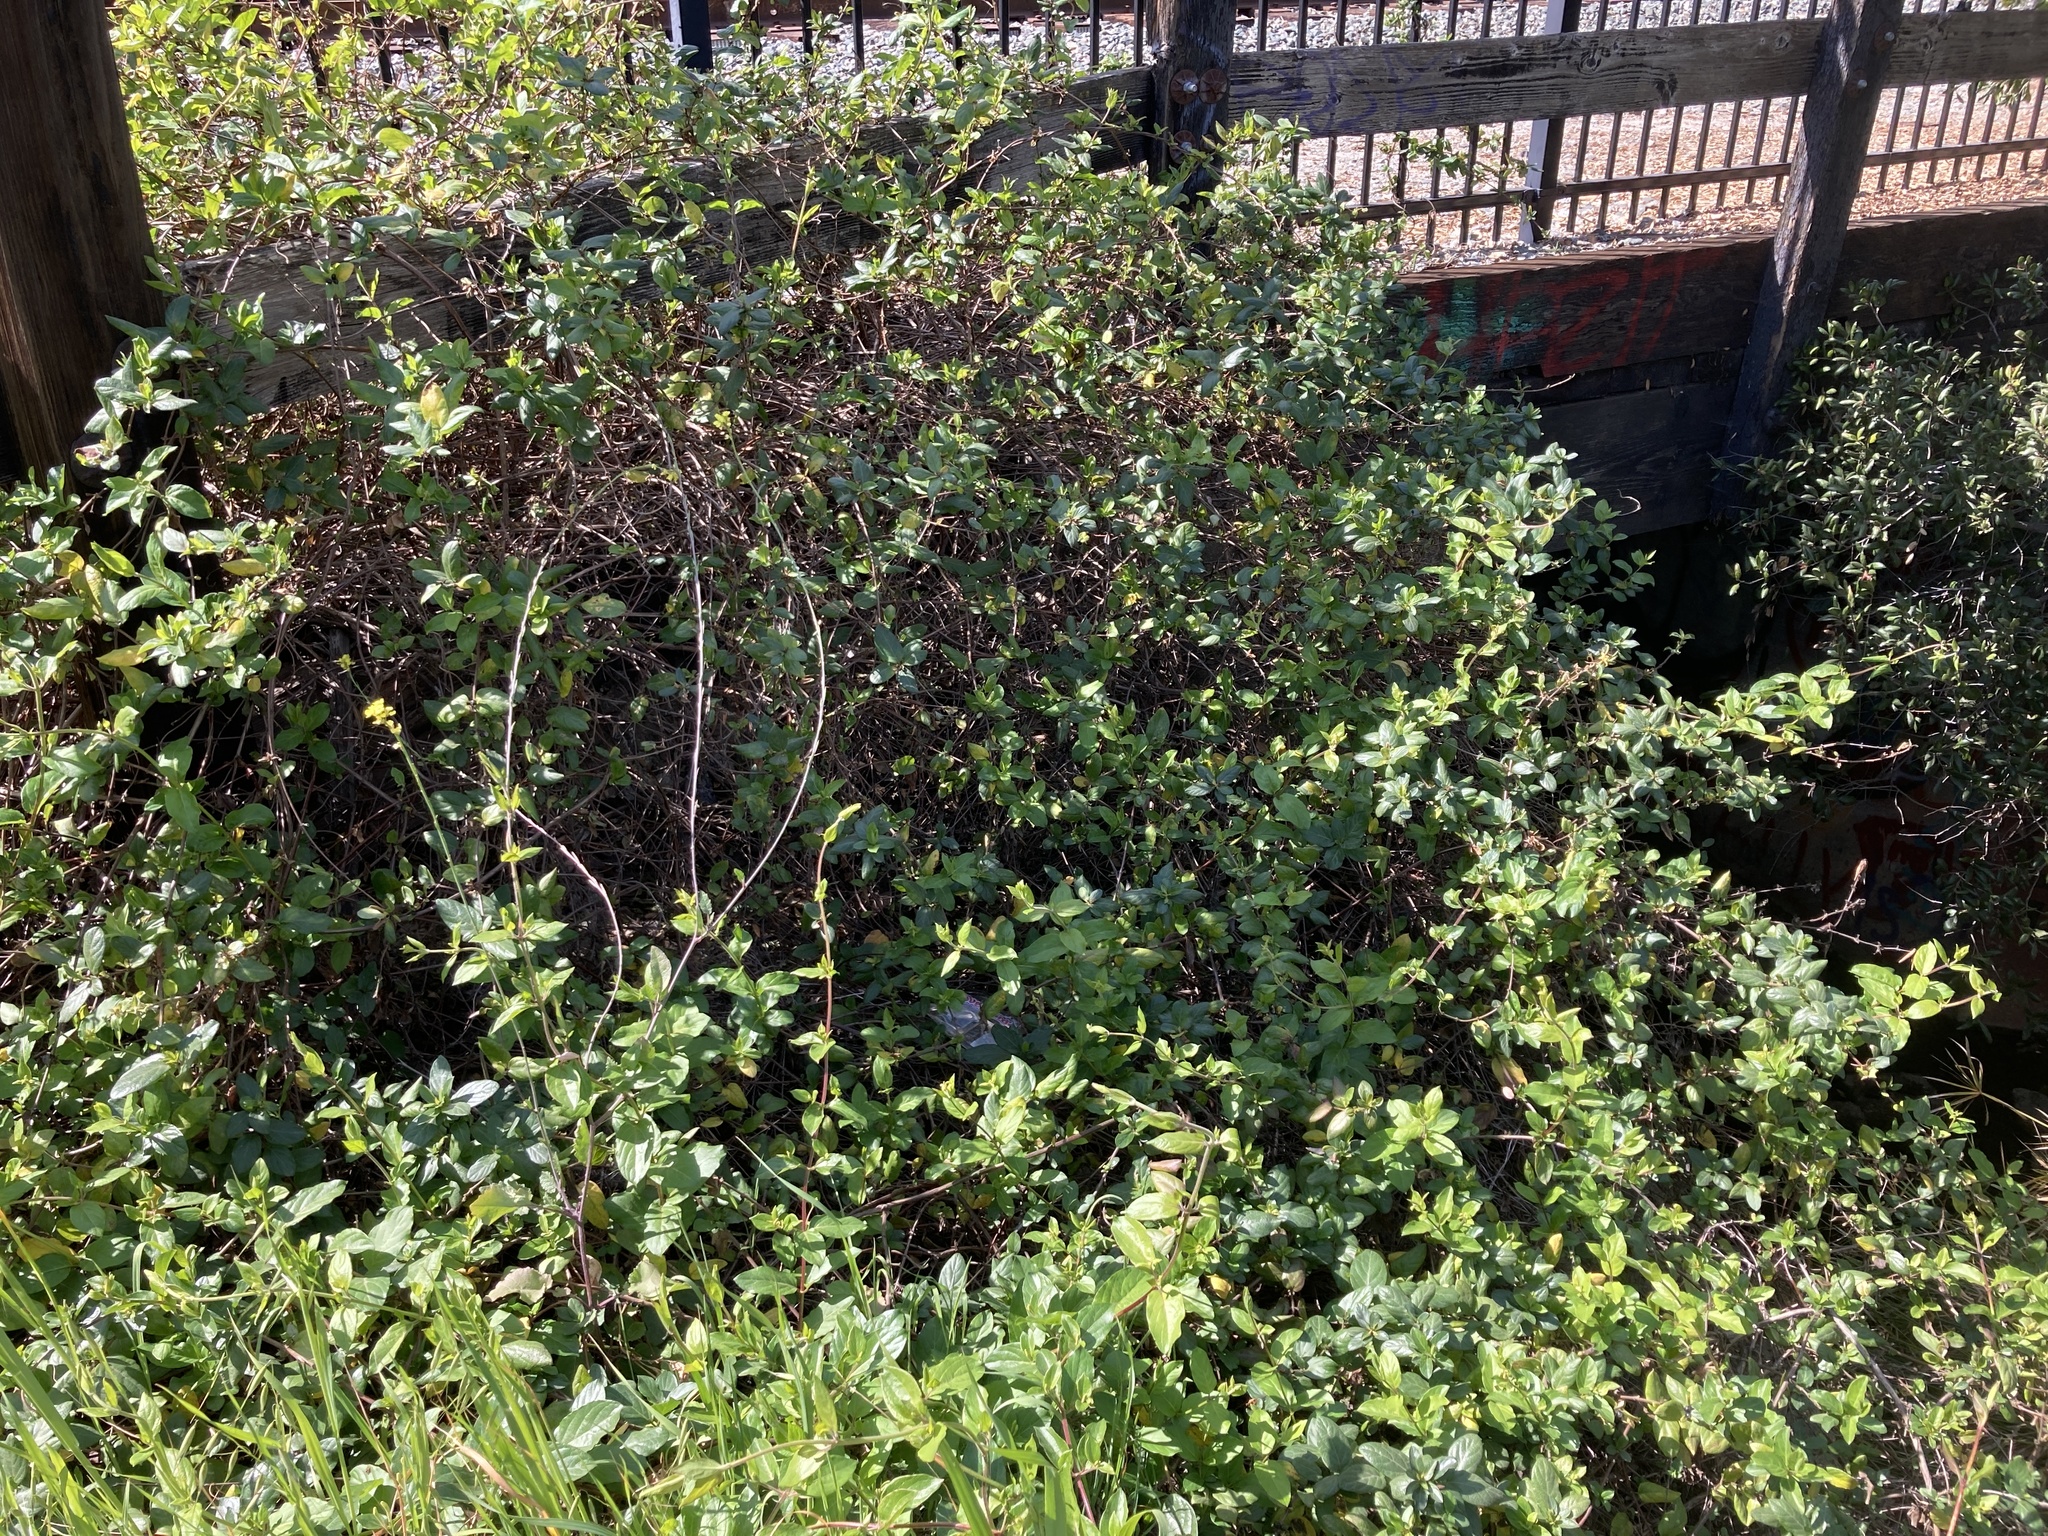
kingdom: Plantae
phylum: Tracheophyta
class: Magnoliopsida
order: Dipsacales
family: Caprifoliaceae
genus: Lonicera
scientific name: Lonicera japonica
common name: Japanese honeysuckle
